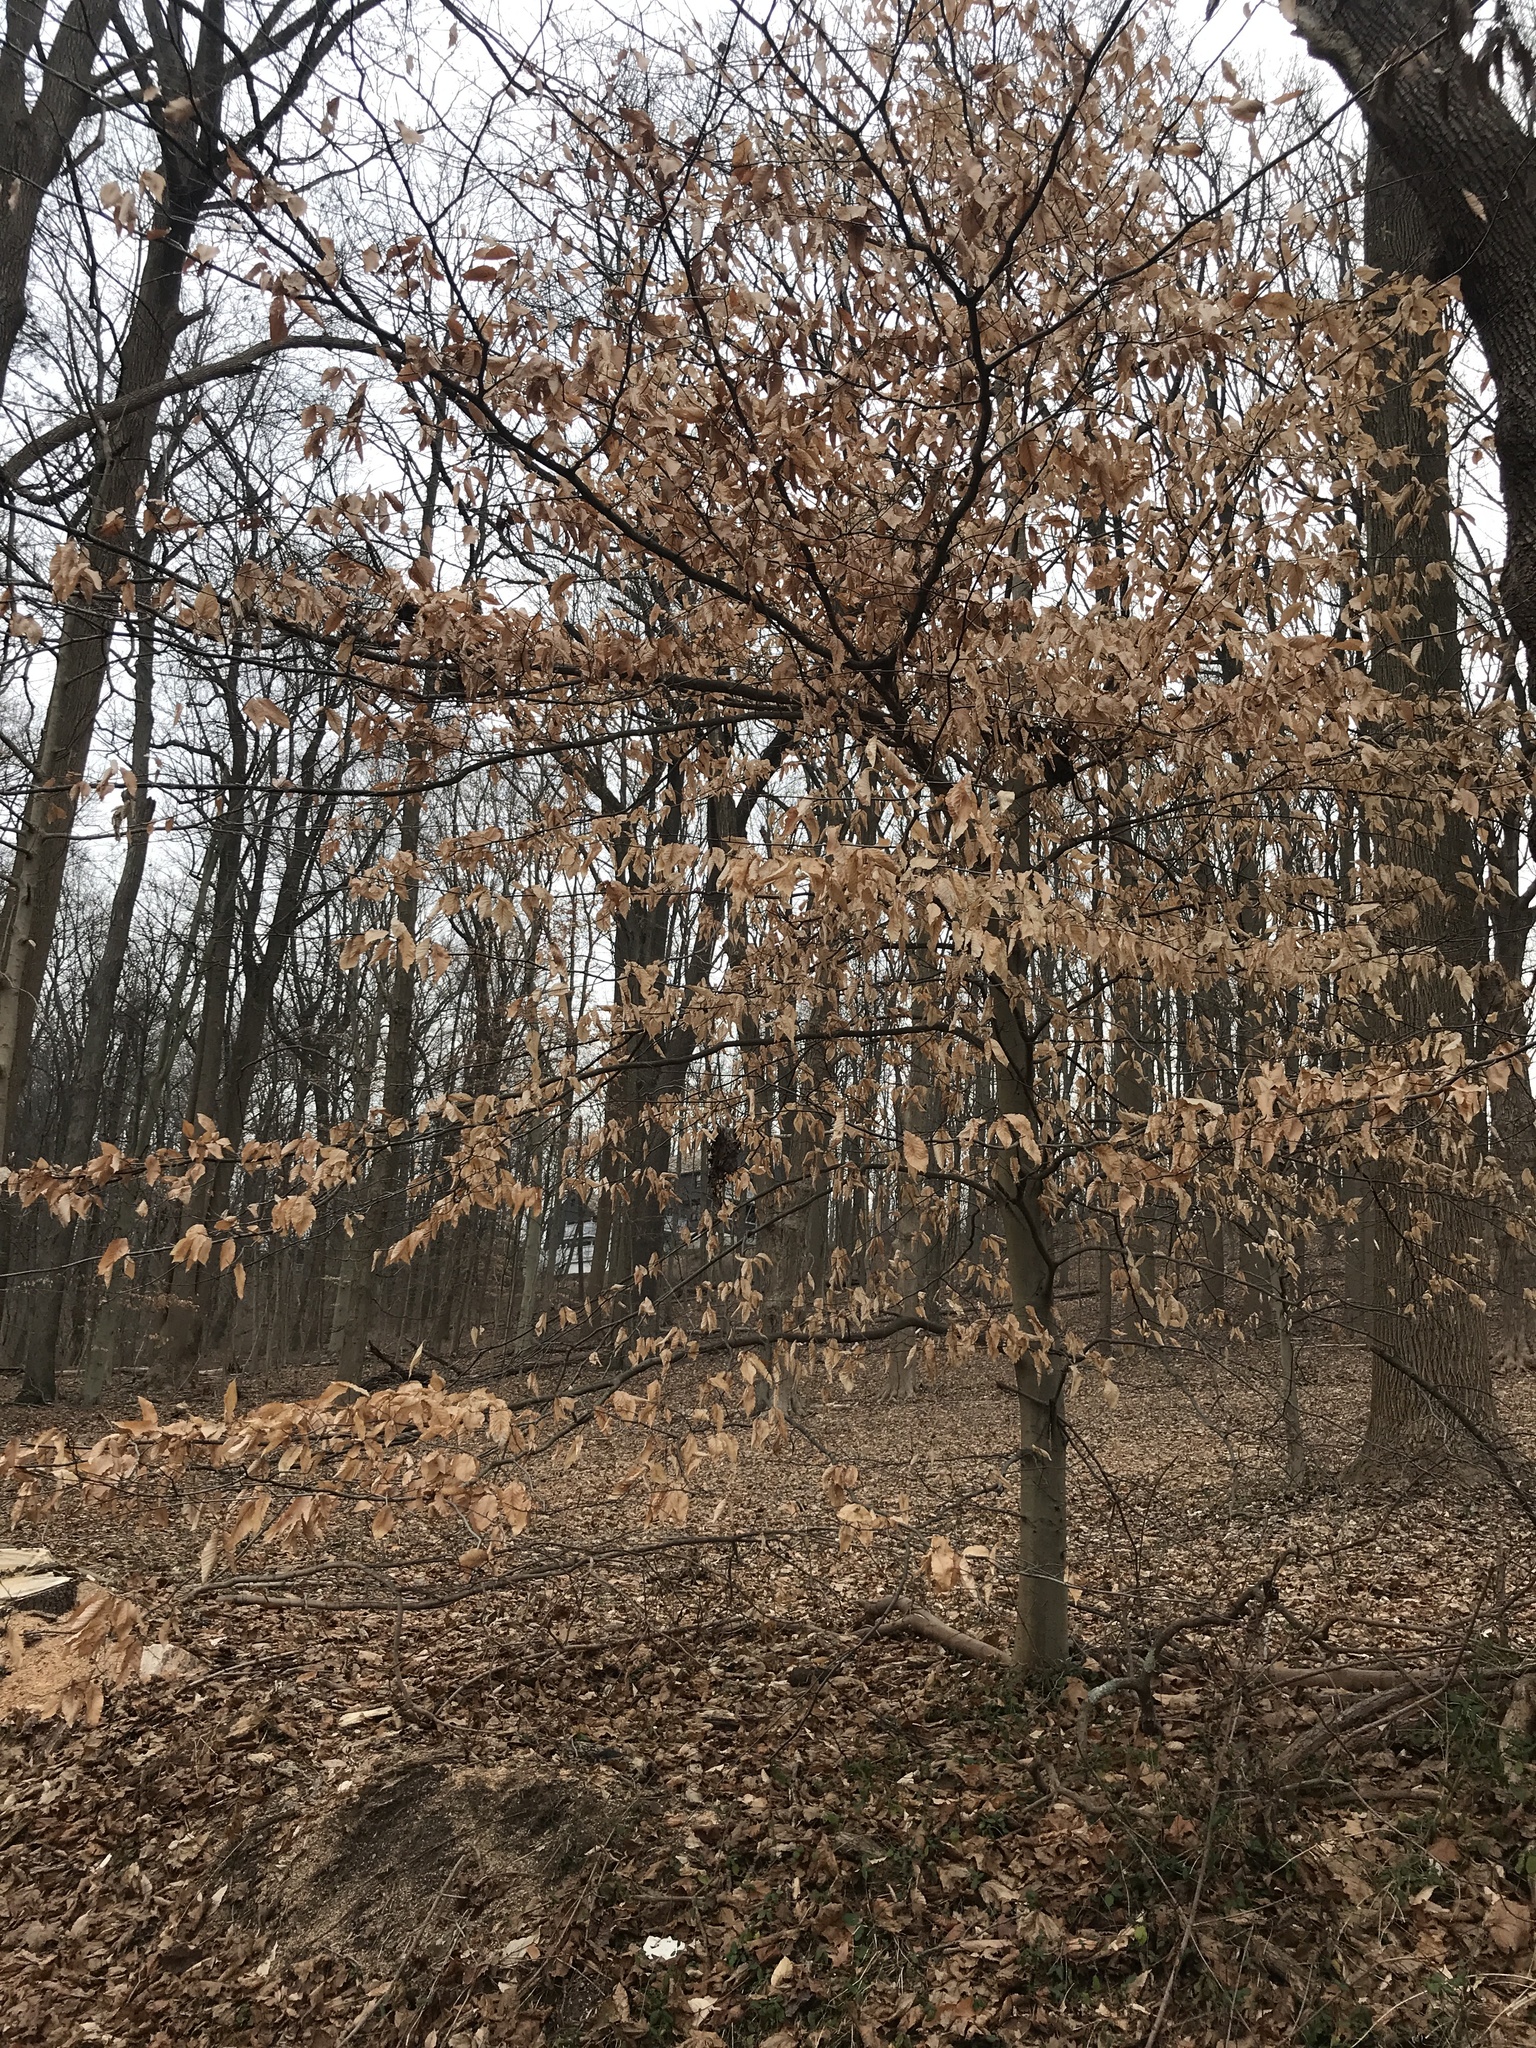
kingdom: Plantae
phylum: Tracheophyta
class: Magnoliopsida
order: Fagales
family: Fagaceae
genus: Fagus
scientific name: Fagus grandifolia
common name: American beech
